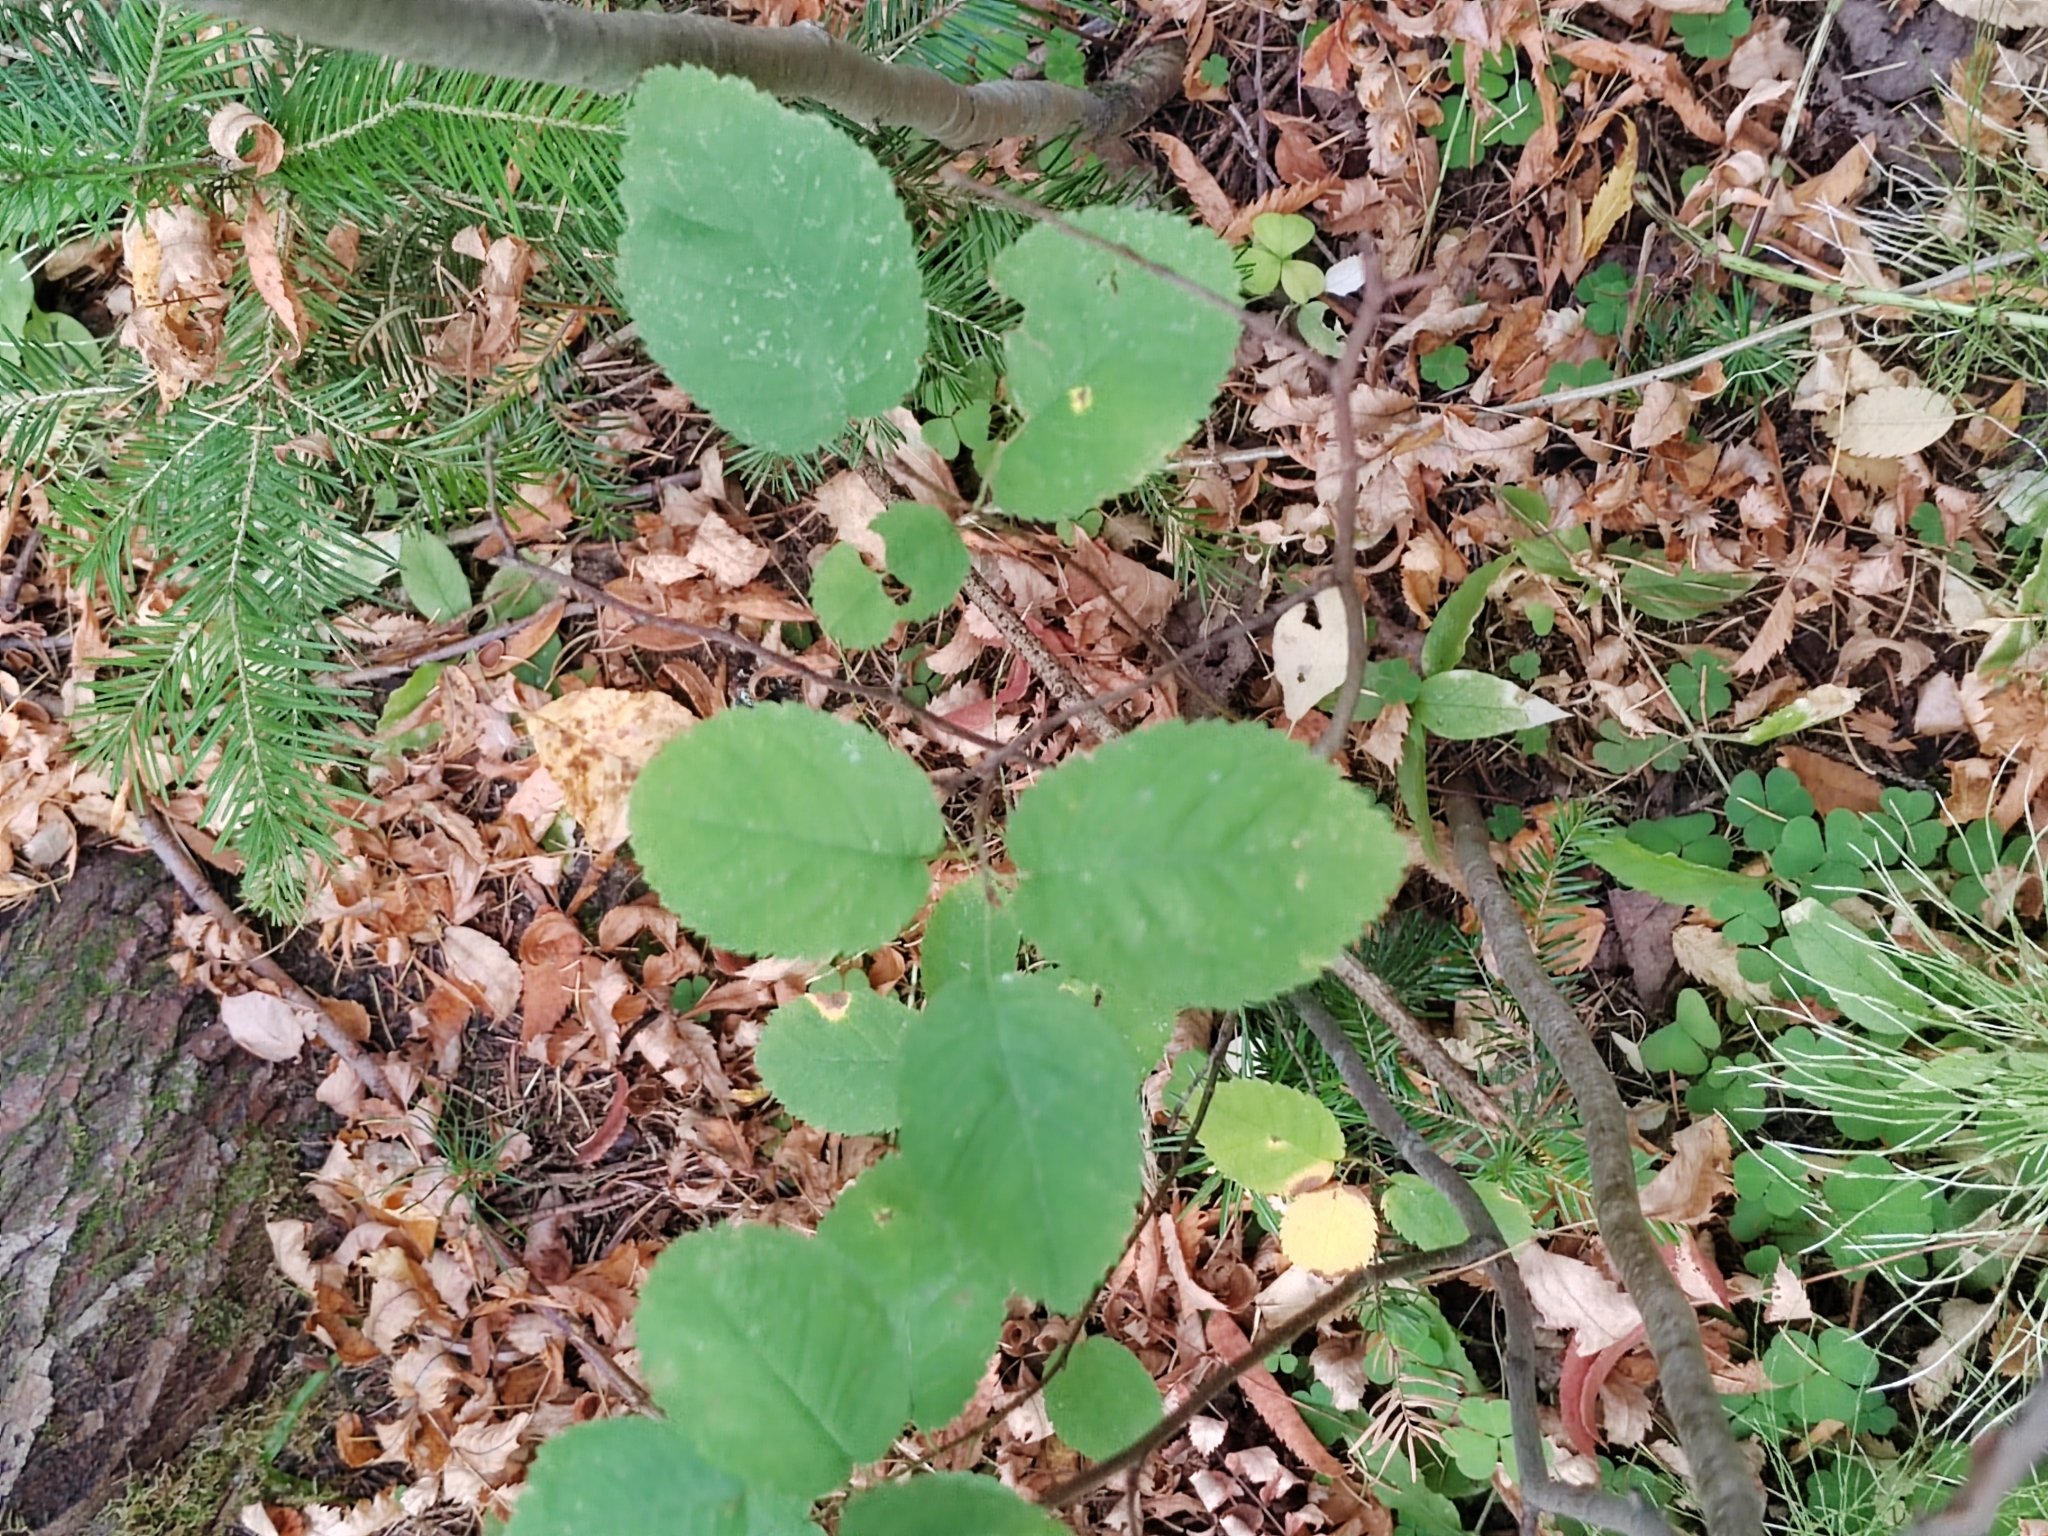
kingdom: Plantae
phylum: Tracheophyta
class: Magnoliopsida
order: Rosales
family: Rosaceae
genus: Amelanchier
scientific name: Amelanchier
